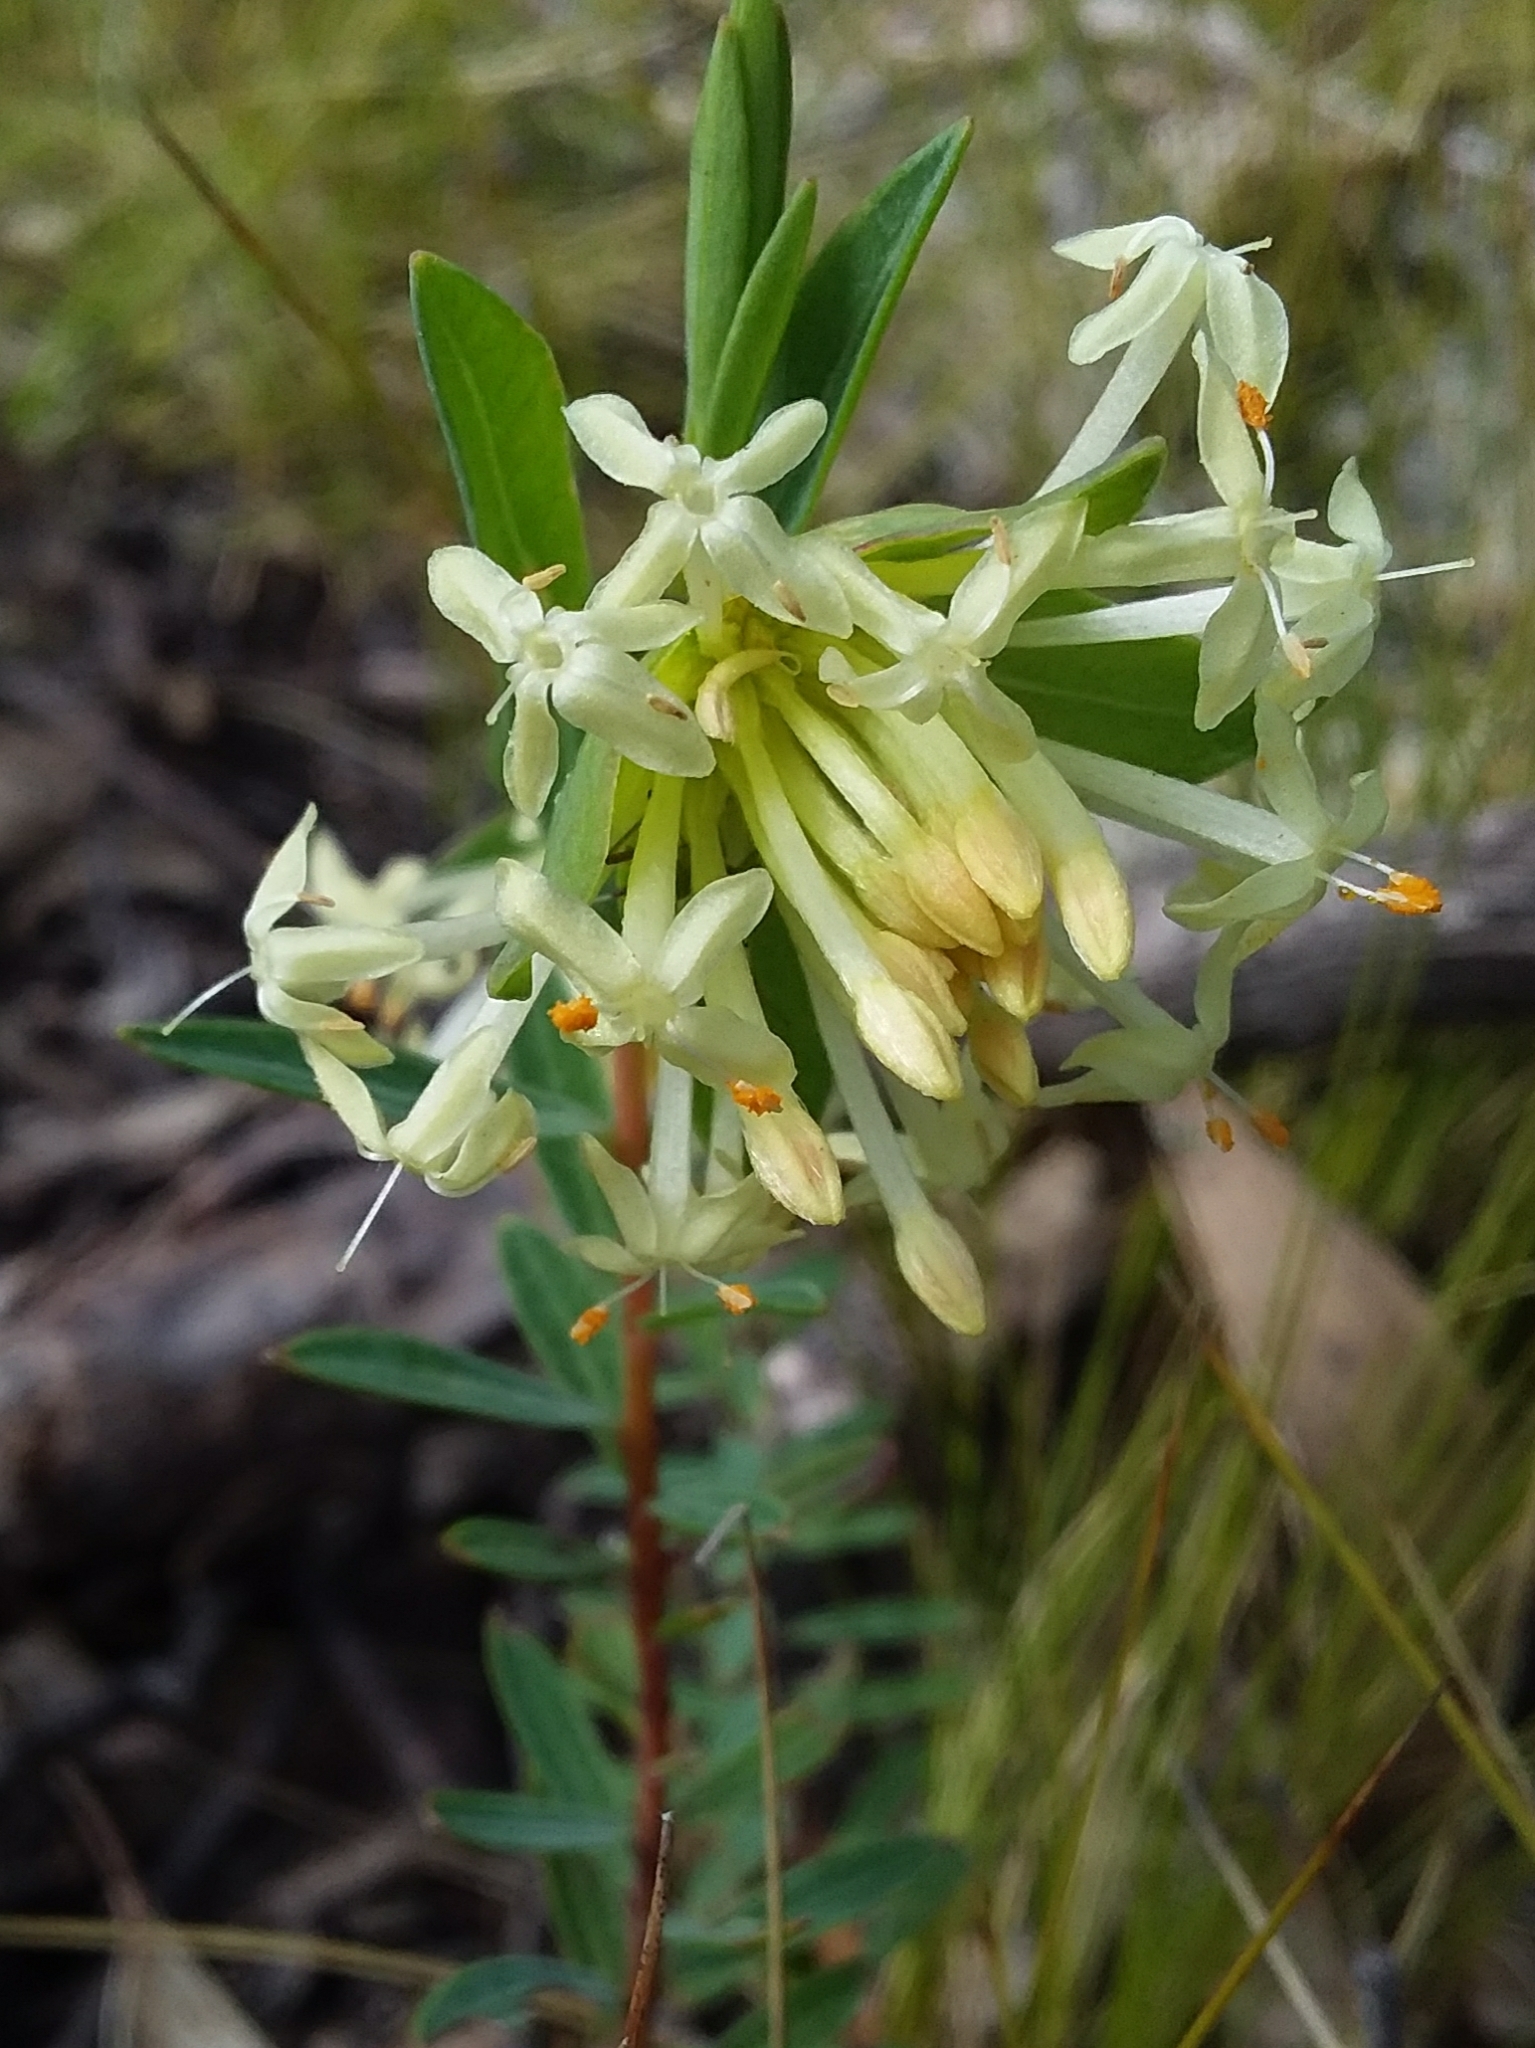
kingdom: Plantae
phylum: Tracheophyta
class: Magnoliopsida
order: Malvales
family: Thymelaeaceae
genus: Pimelea
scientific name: Pimelea linifolia
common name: Queen-of-the-bush
